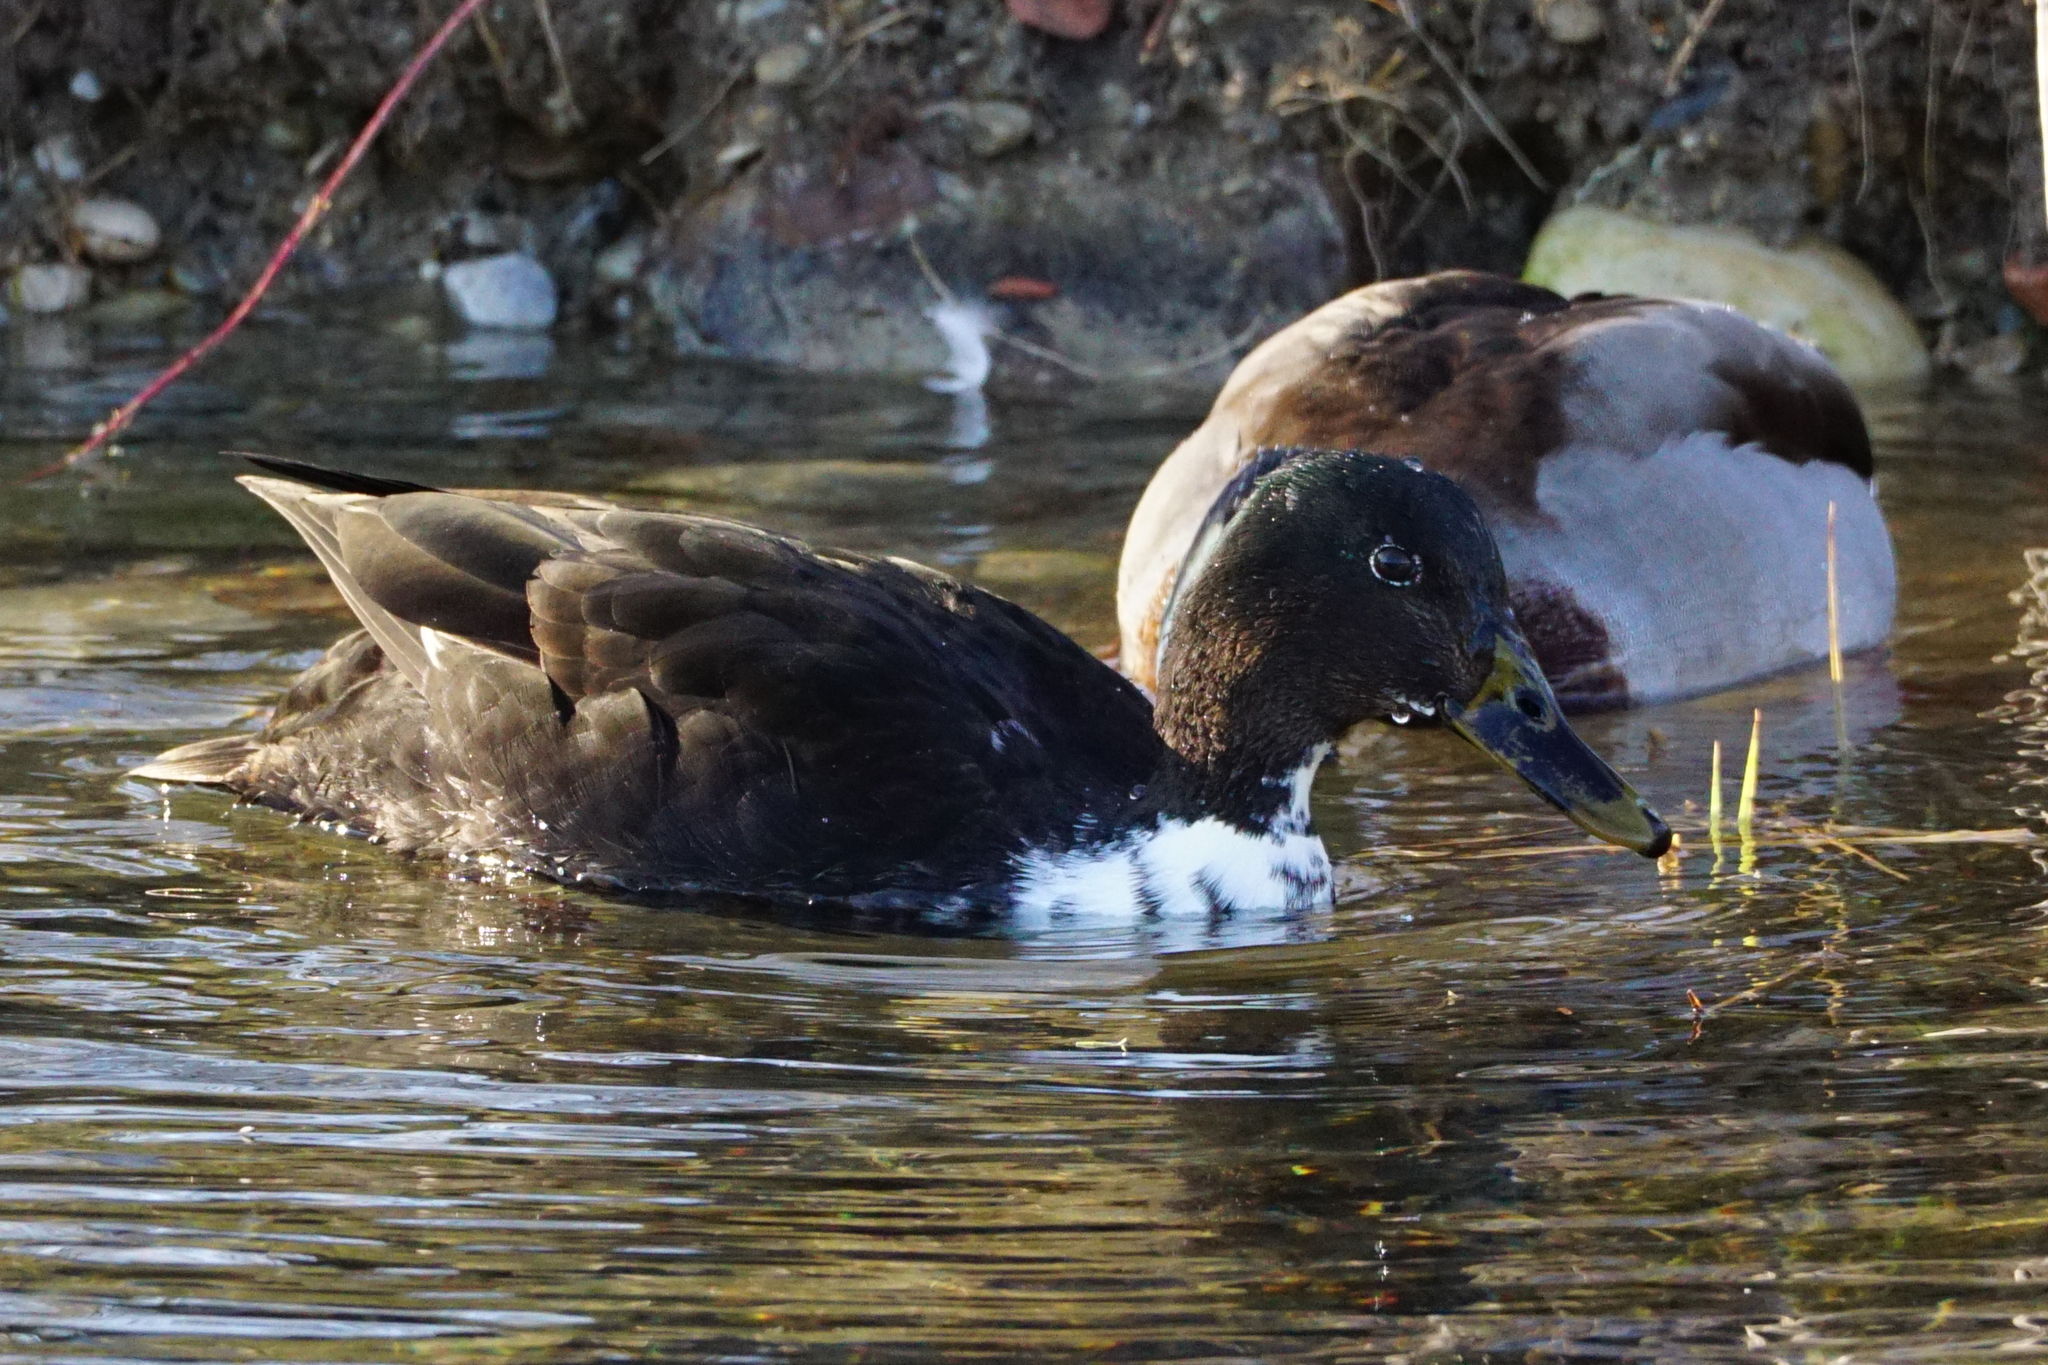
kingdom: Animalia
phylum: Chordata
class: Aves
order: Anseriformes
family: Anatidae
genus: Anas
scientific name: Anas platyrhynchos
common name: Mallard
